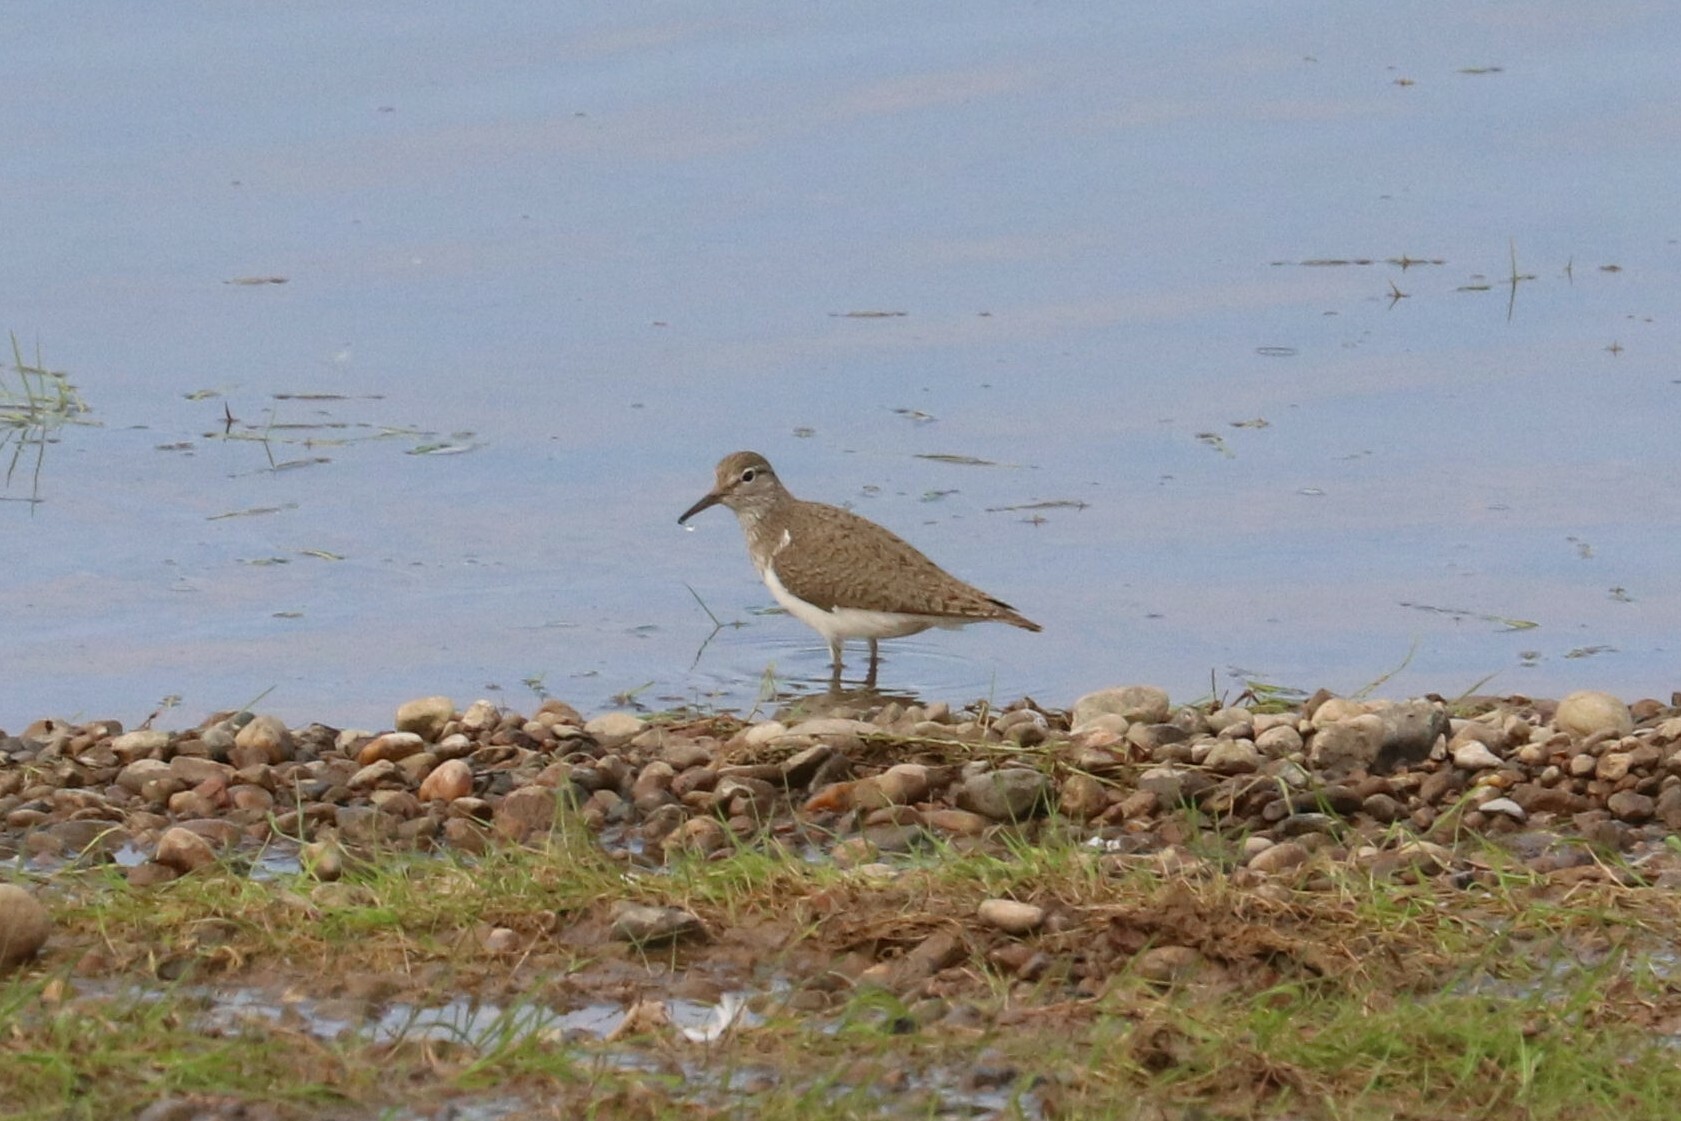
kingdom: Animalia
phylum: Chordata
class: Aves
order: Charadriiformes
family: Scolopacidae
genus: Actitis
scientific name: Actitis hypoleucos
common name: Common sandpiper
